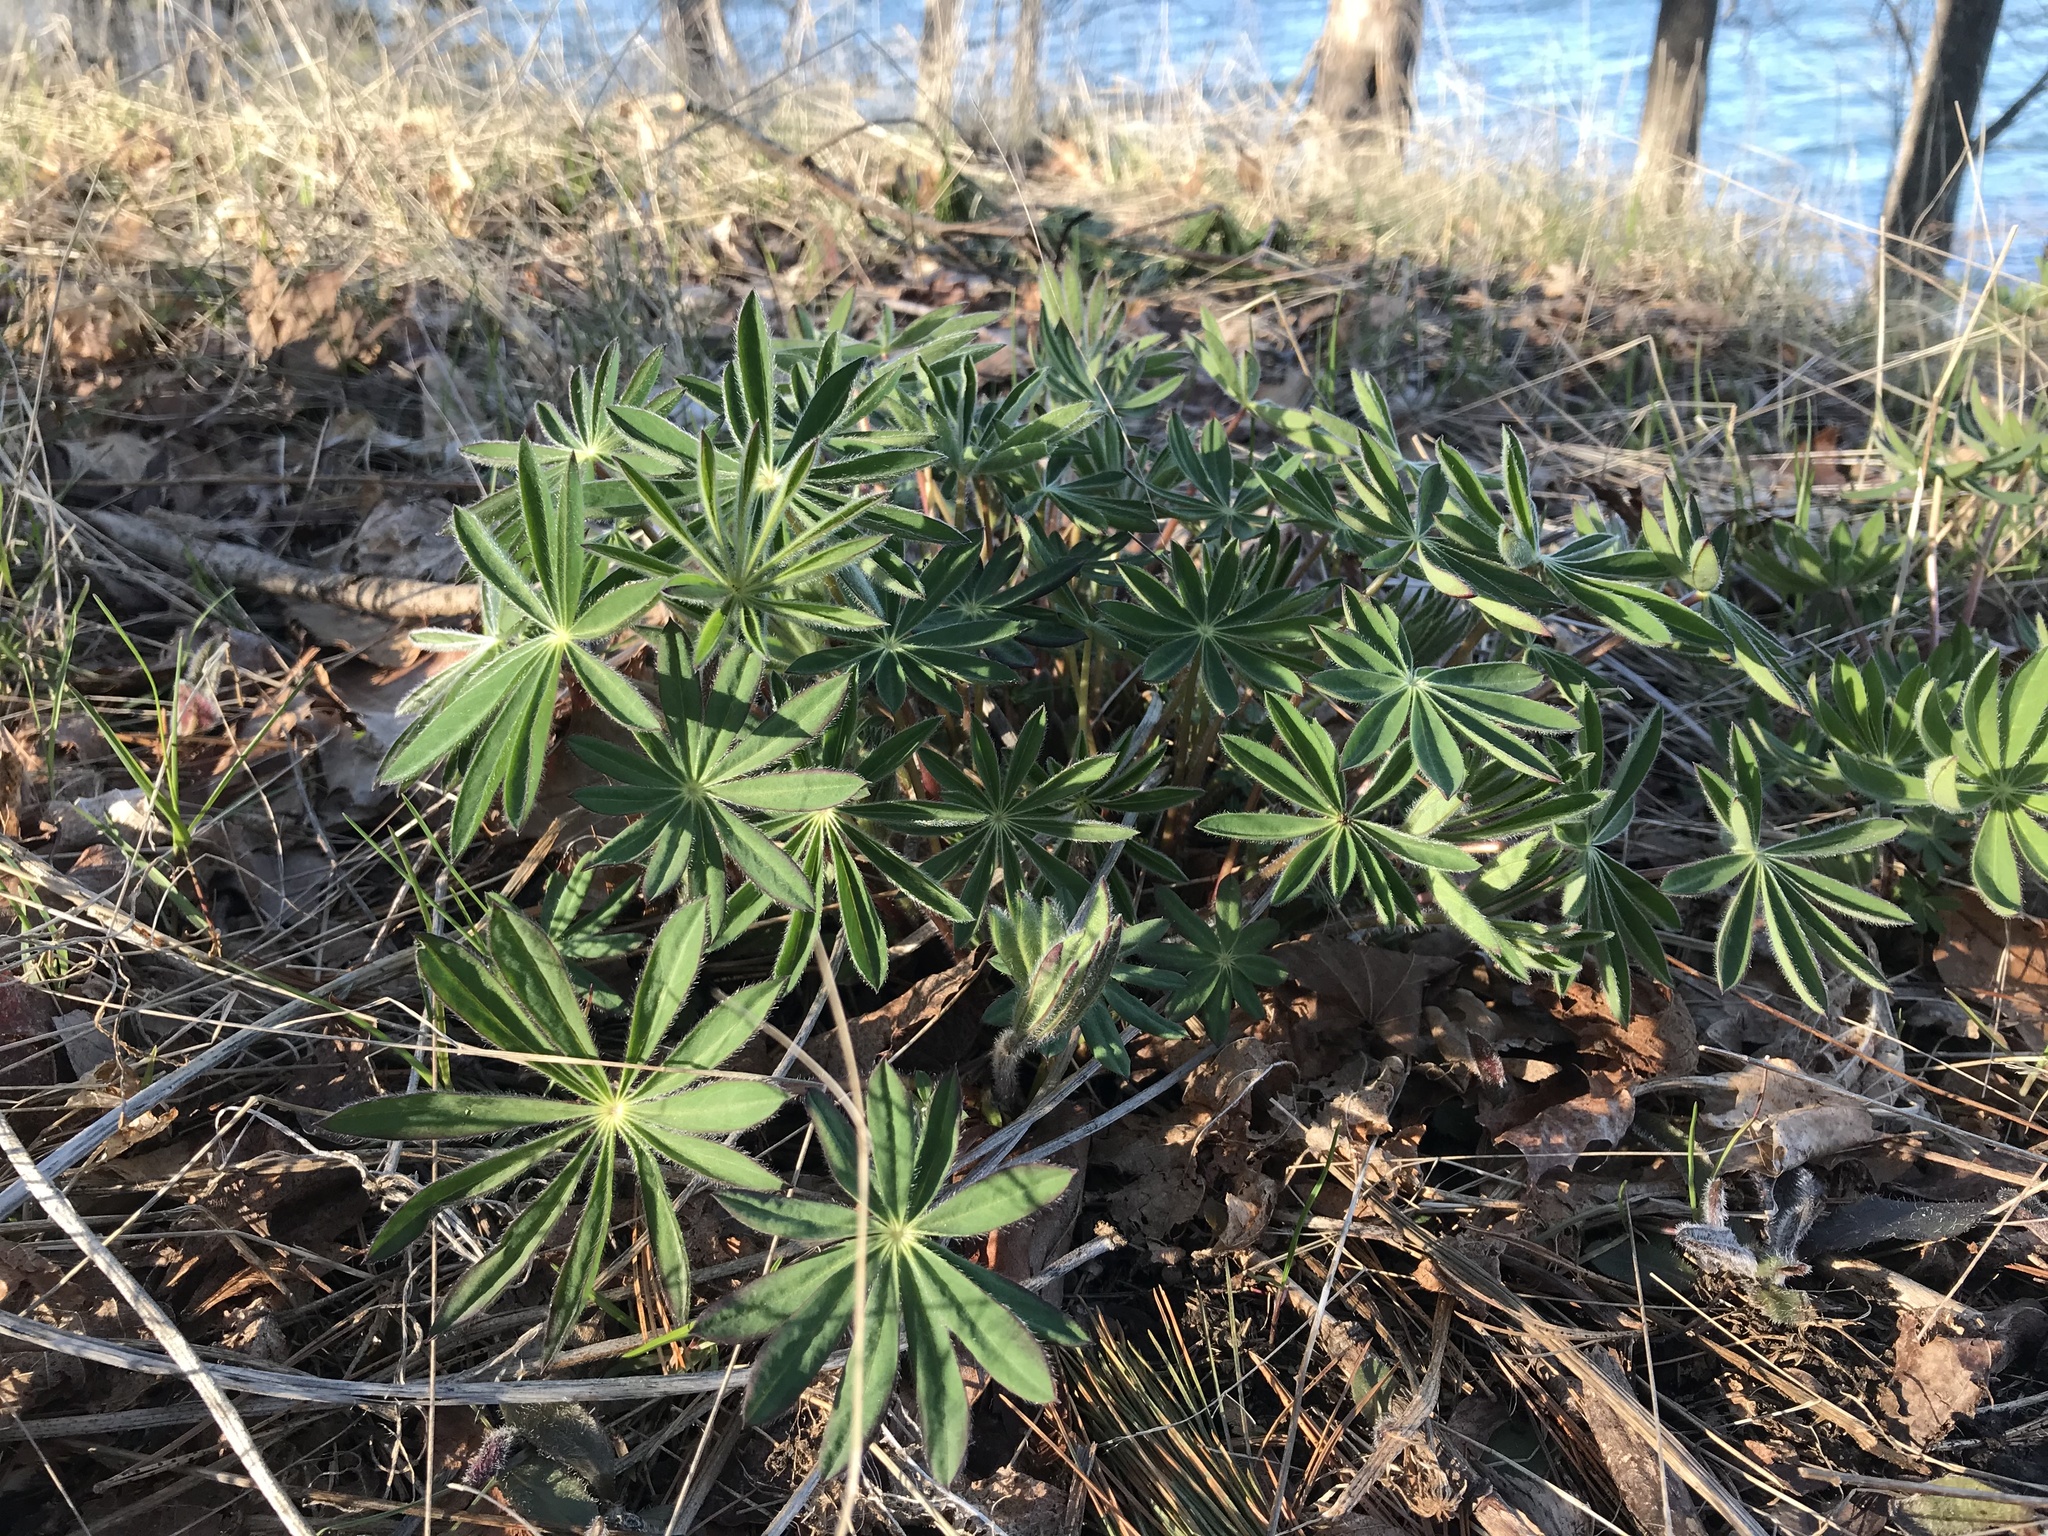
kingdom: Plantae
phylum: Tracheophyta
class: Magnoliopsida
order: Fabales
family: Fabaceae
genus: Lupinus
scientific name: Lupinus polyphyllus
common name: Garden lupin
